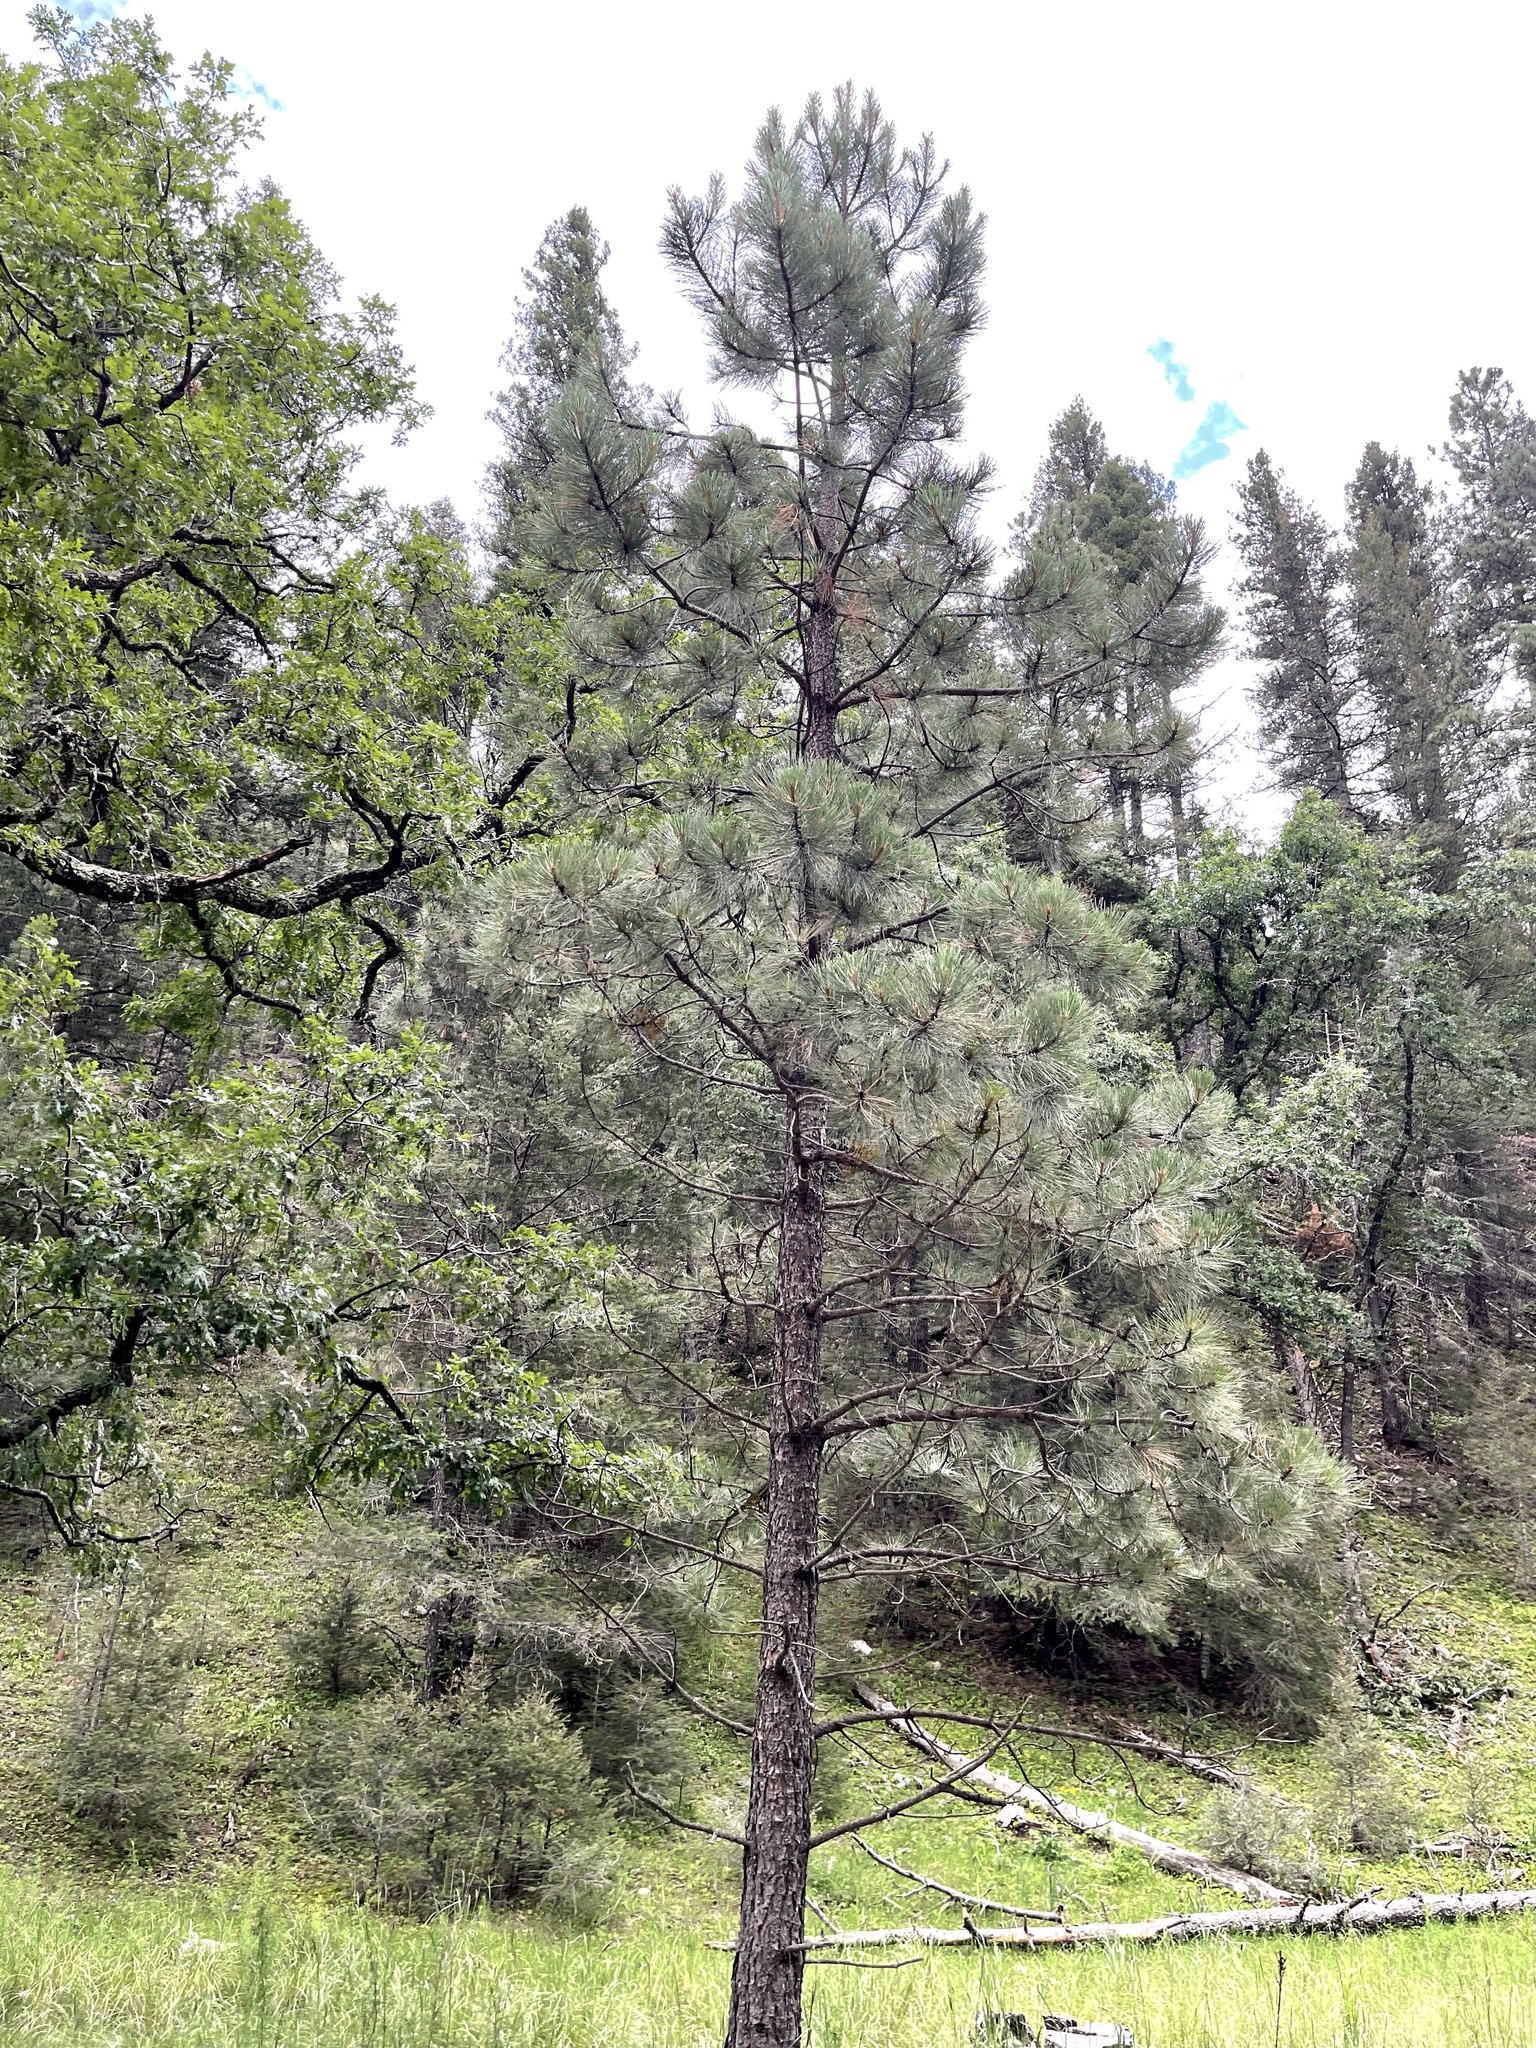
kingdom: Plantae
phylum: Tracheophyta
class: Pinopsida
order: Pinales
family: Pinaceae
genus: Pinus
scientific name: Pinus ponderosa
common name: Western yellow-pine
